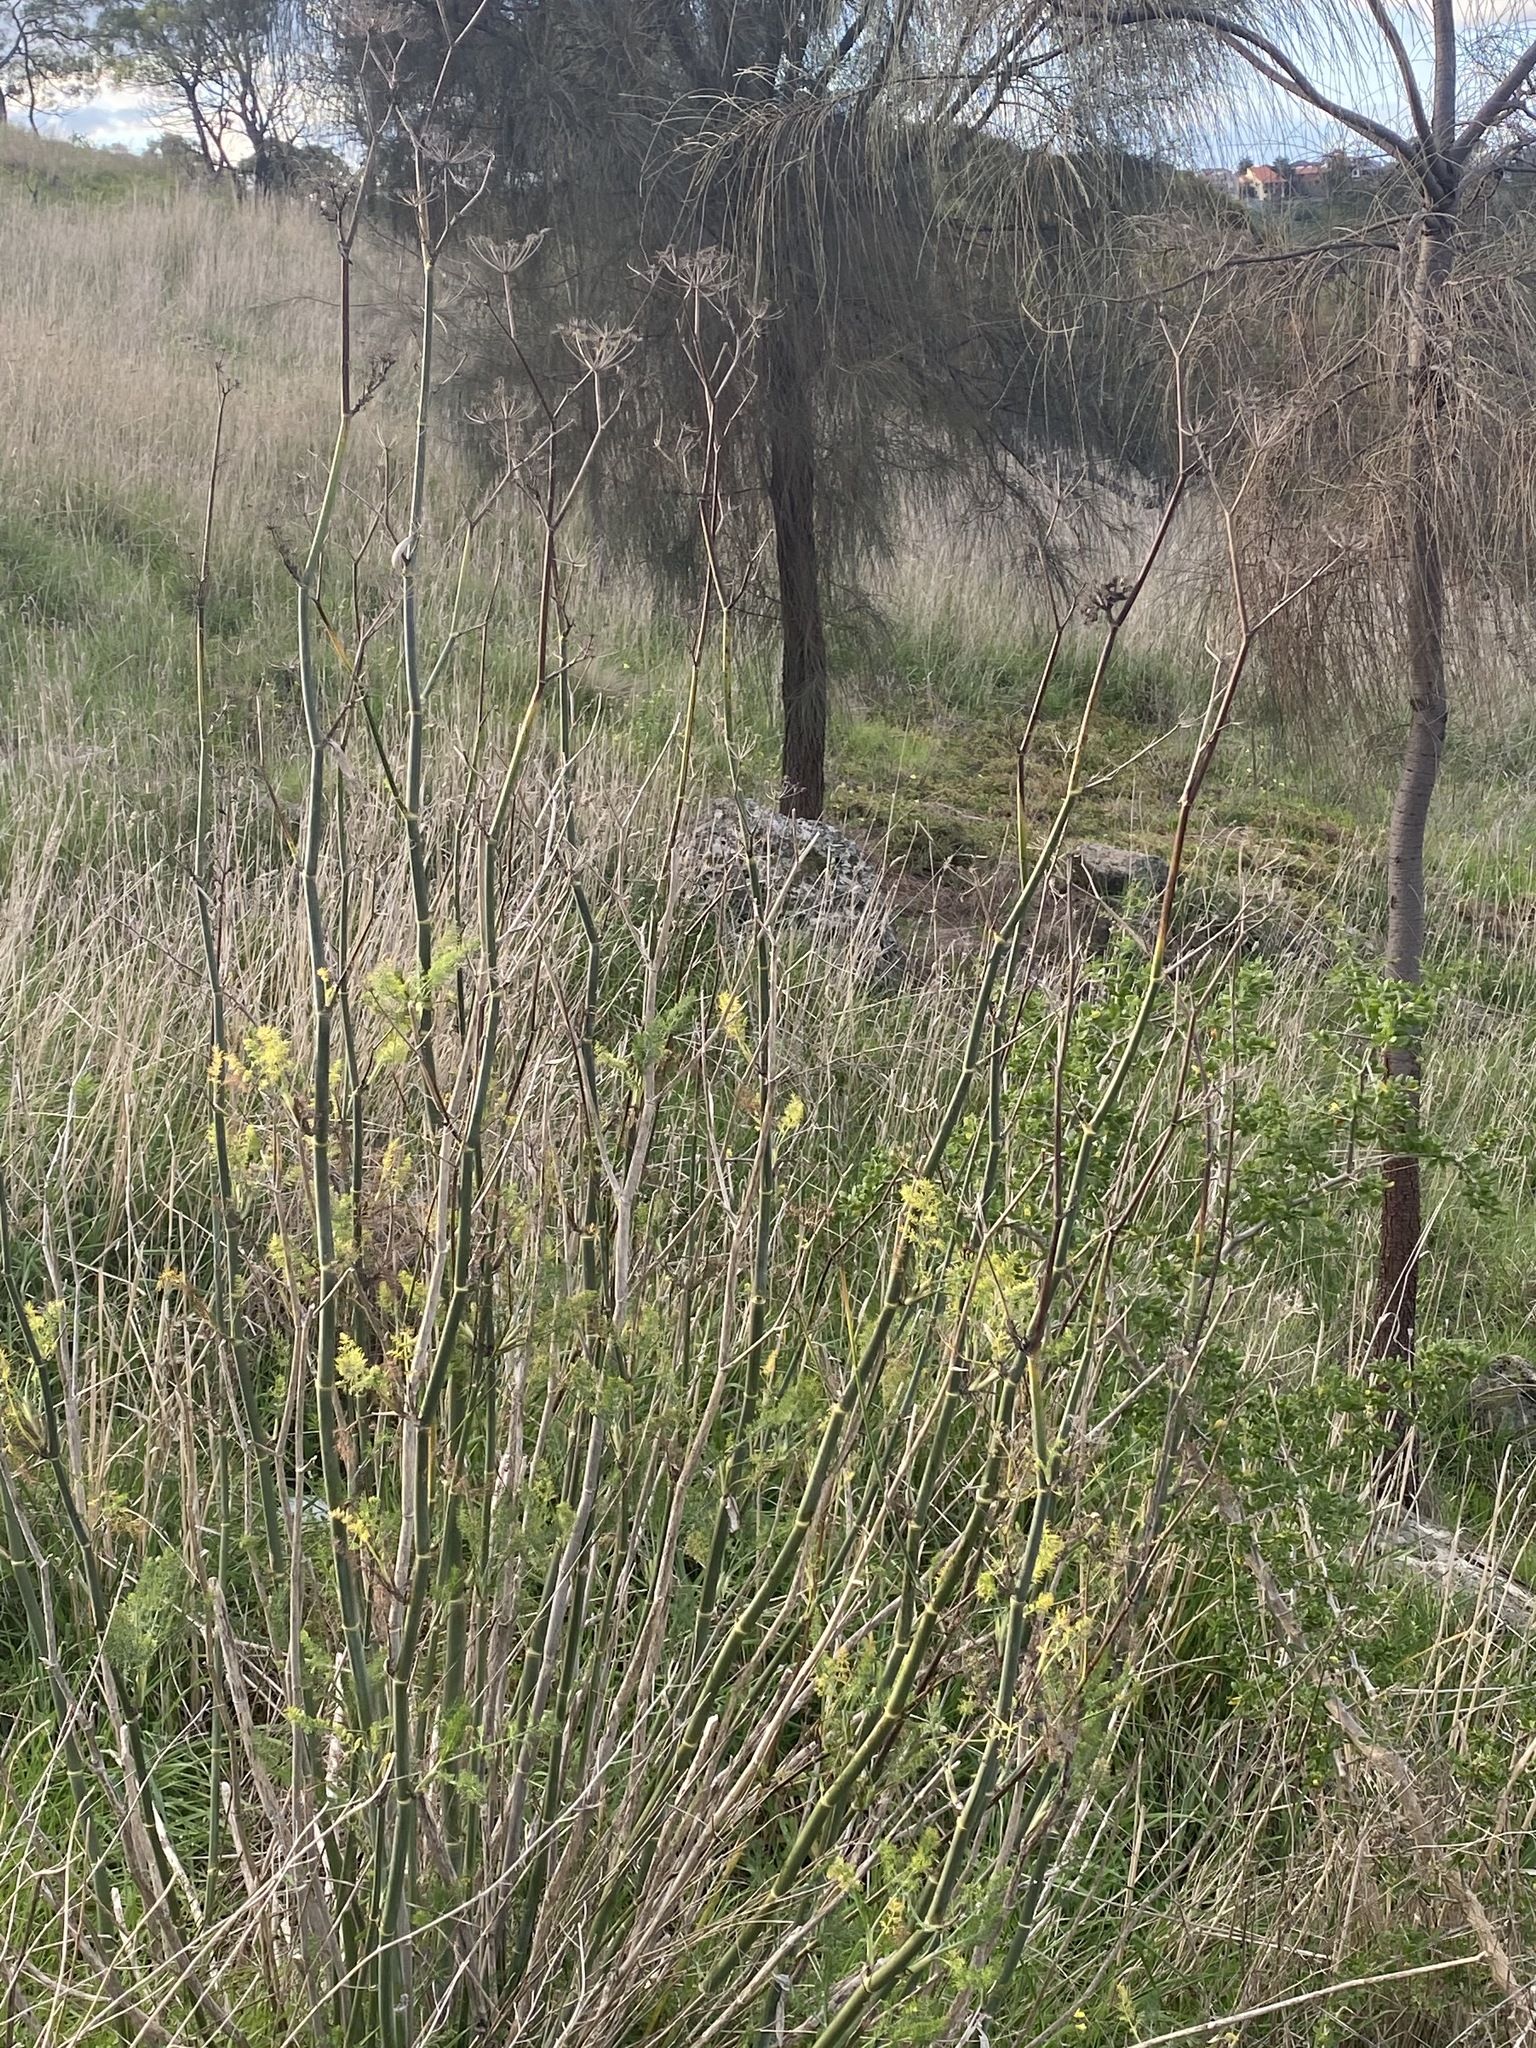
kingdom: Plantae
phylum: Tracheophyta
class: Magnoliopsida
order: Apiales
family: Apiaceae
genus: Foeniculum
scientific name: Foeniculum vulgare
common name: Fennel
